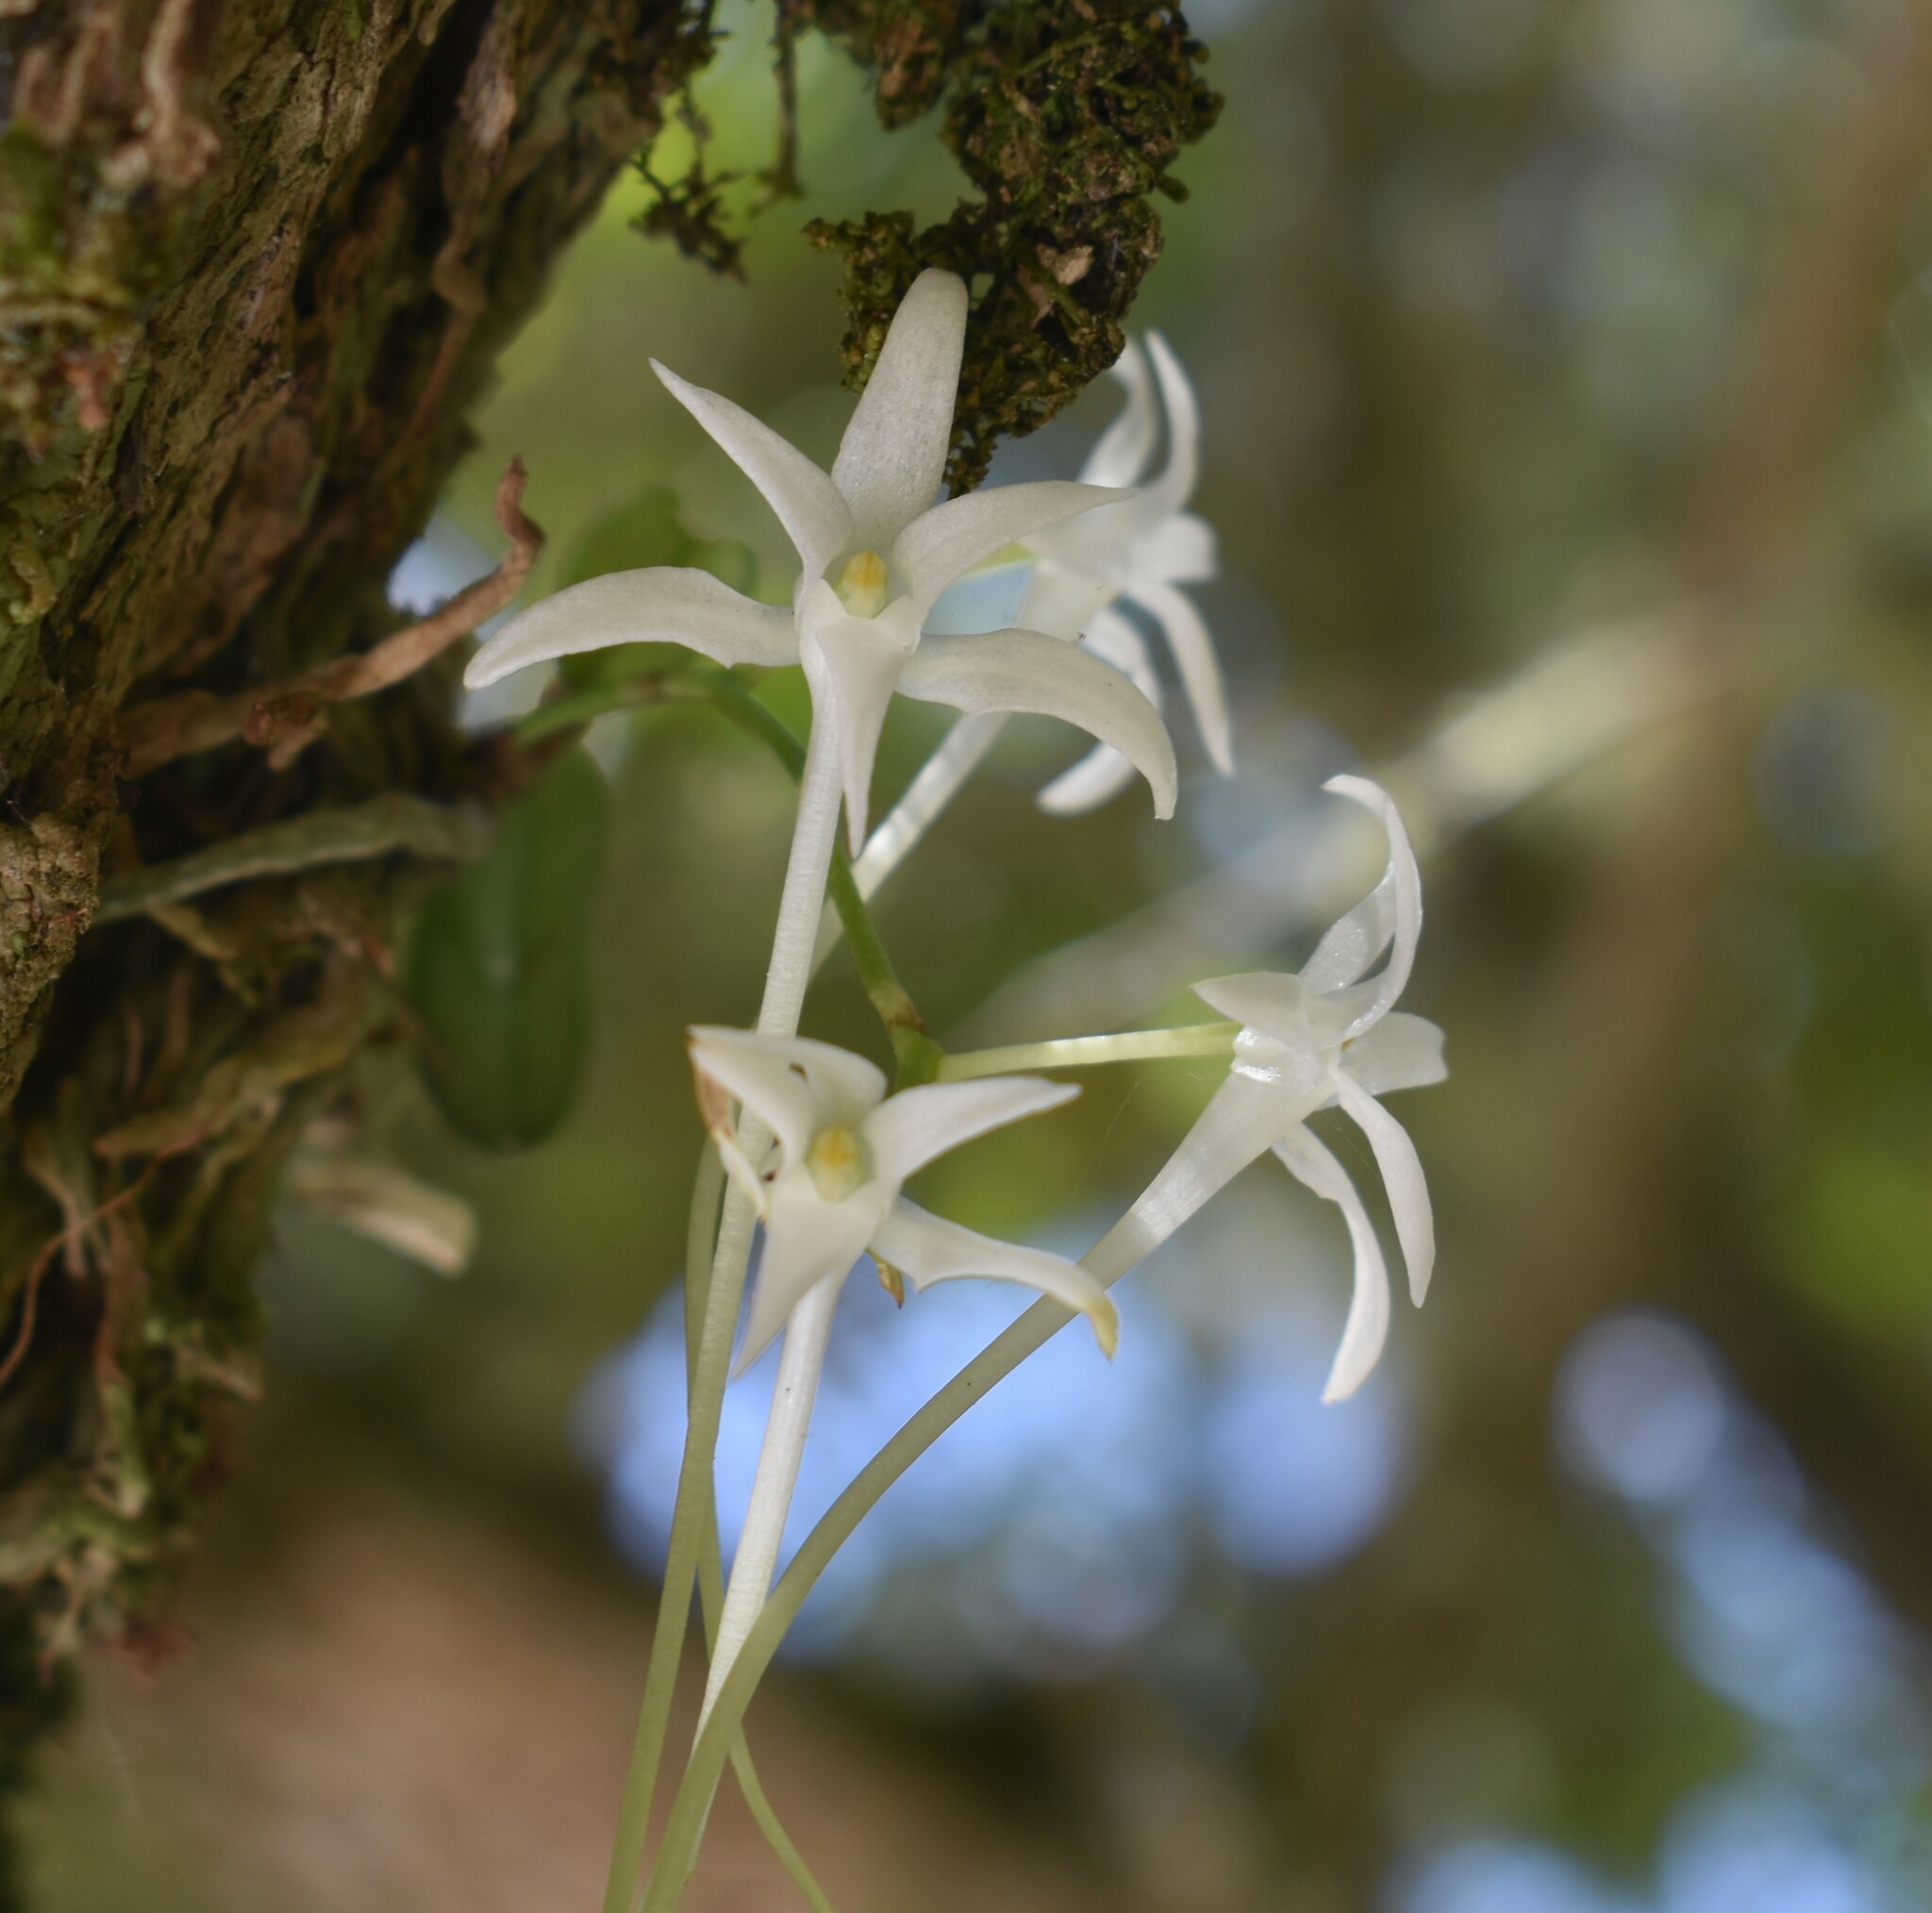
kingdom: Plantae
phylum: Tracheophyta
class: Liliopsida
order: Asparagales
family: Orchidaceae
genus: Mystacidium
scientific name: Mystacidium capense
